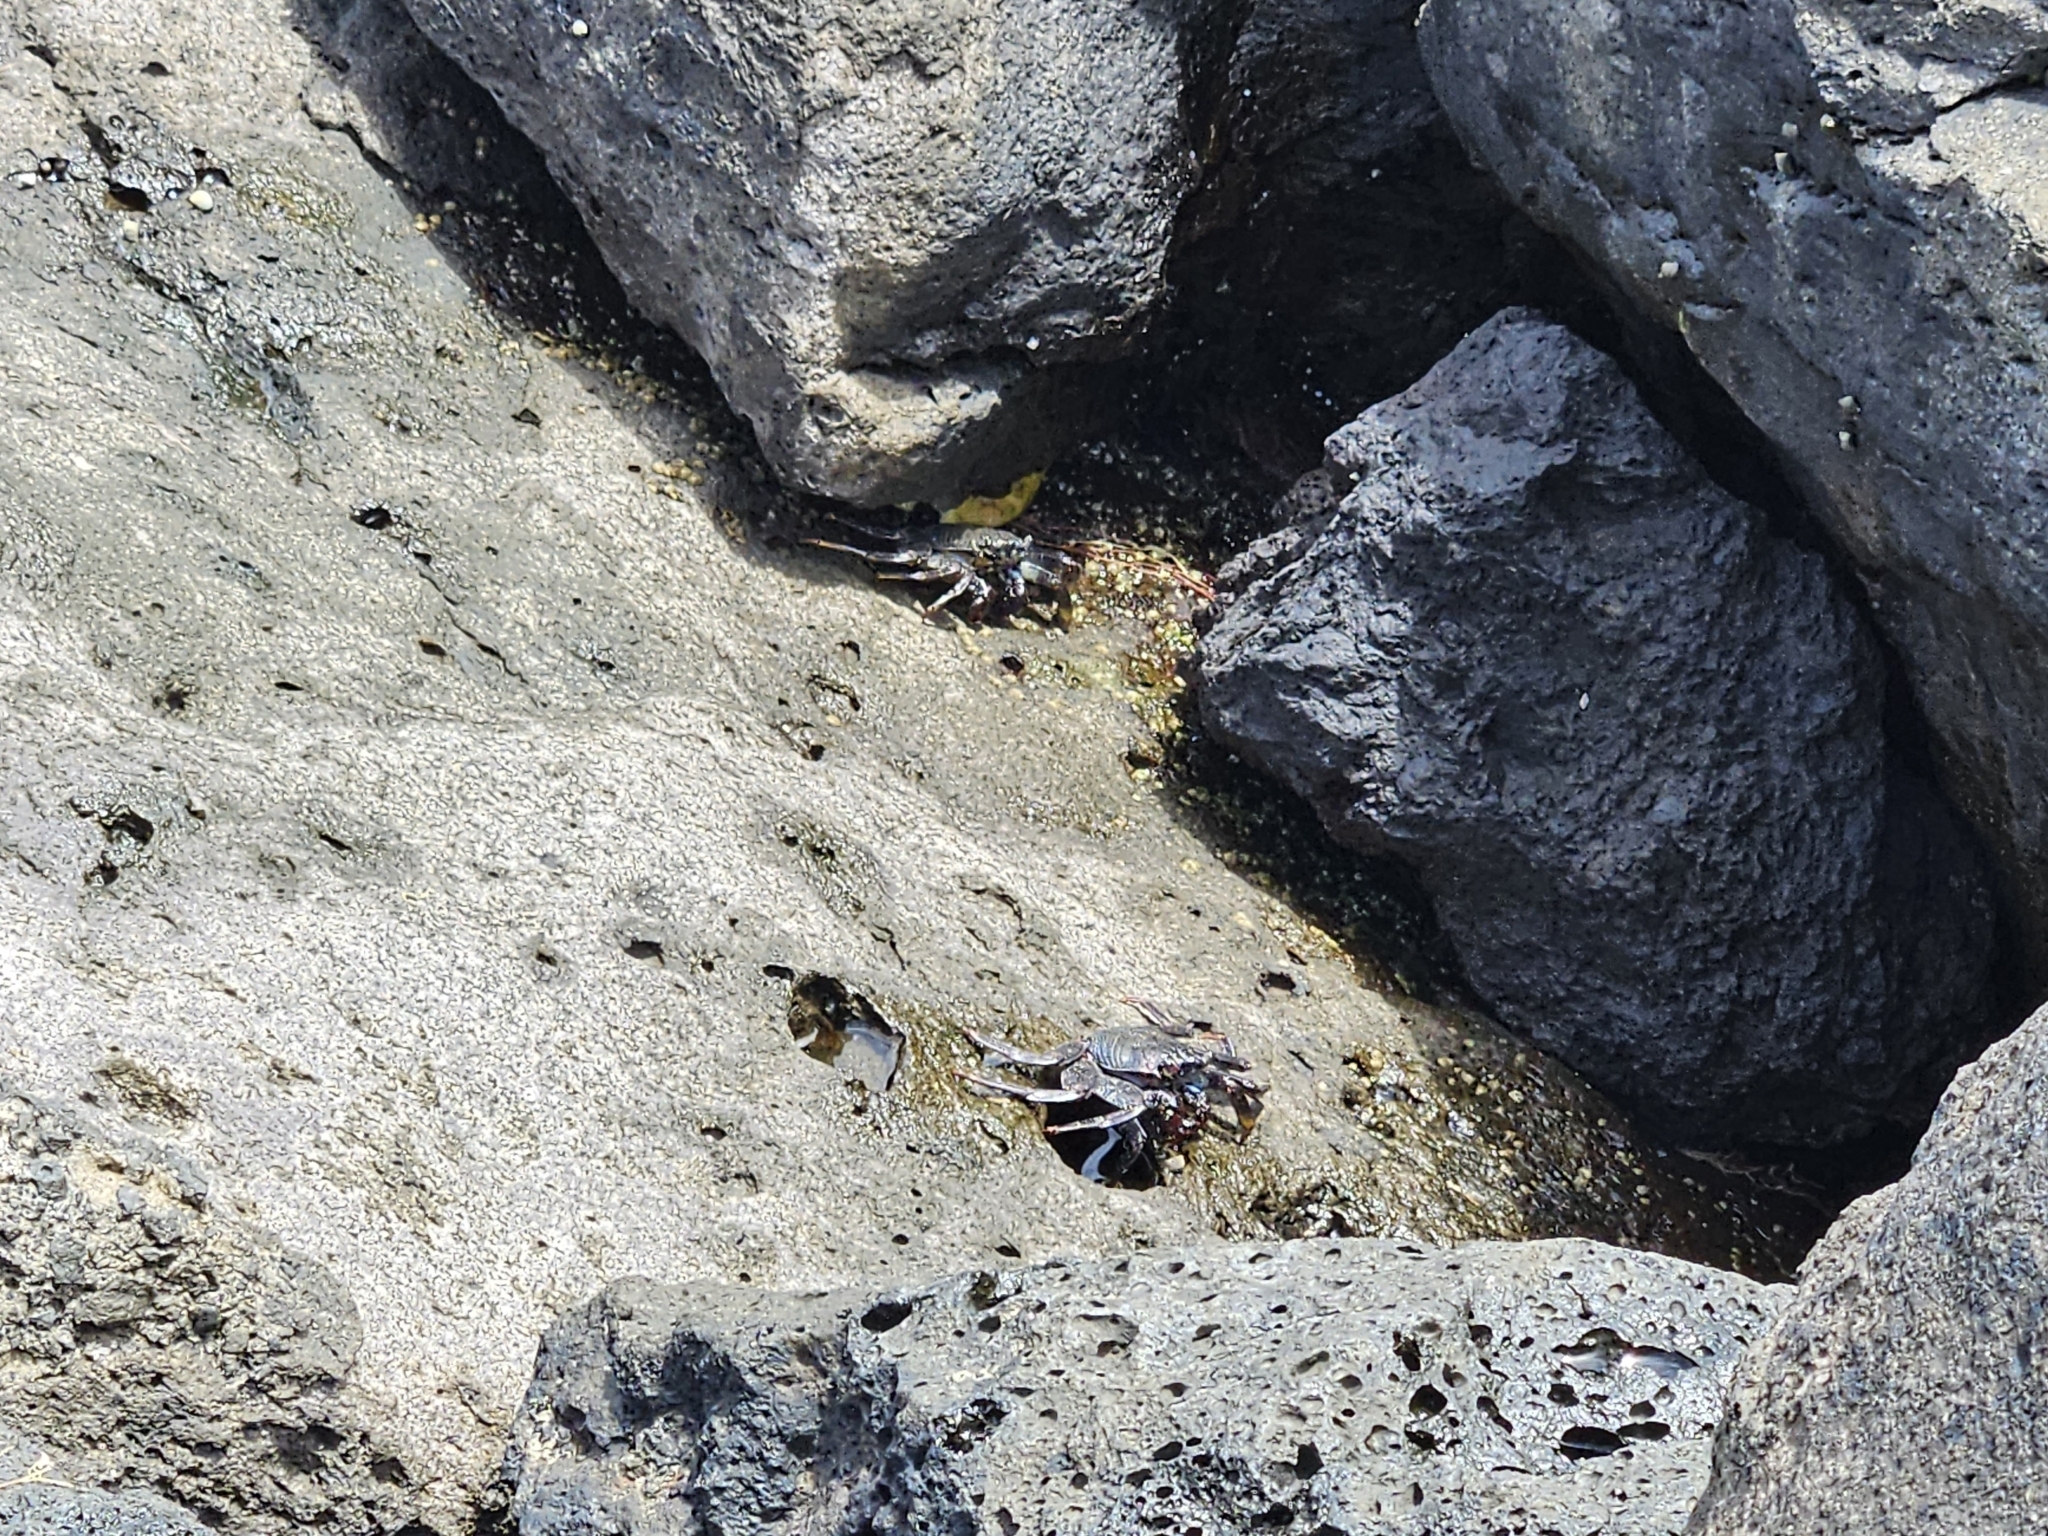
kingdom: Animalia
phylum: Arthropoda
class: Malacostraca
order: Decapoda
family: Grapsidae
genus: Grapsus
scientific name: Grapsus adscensionis
